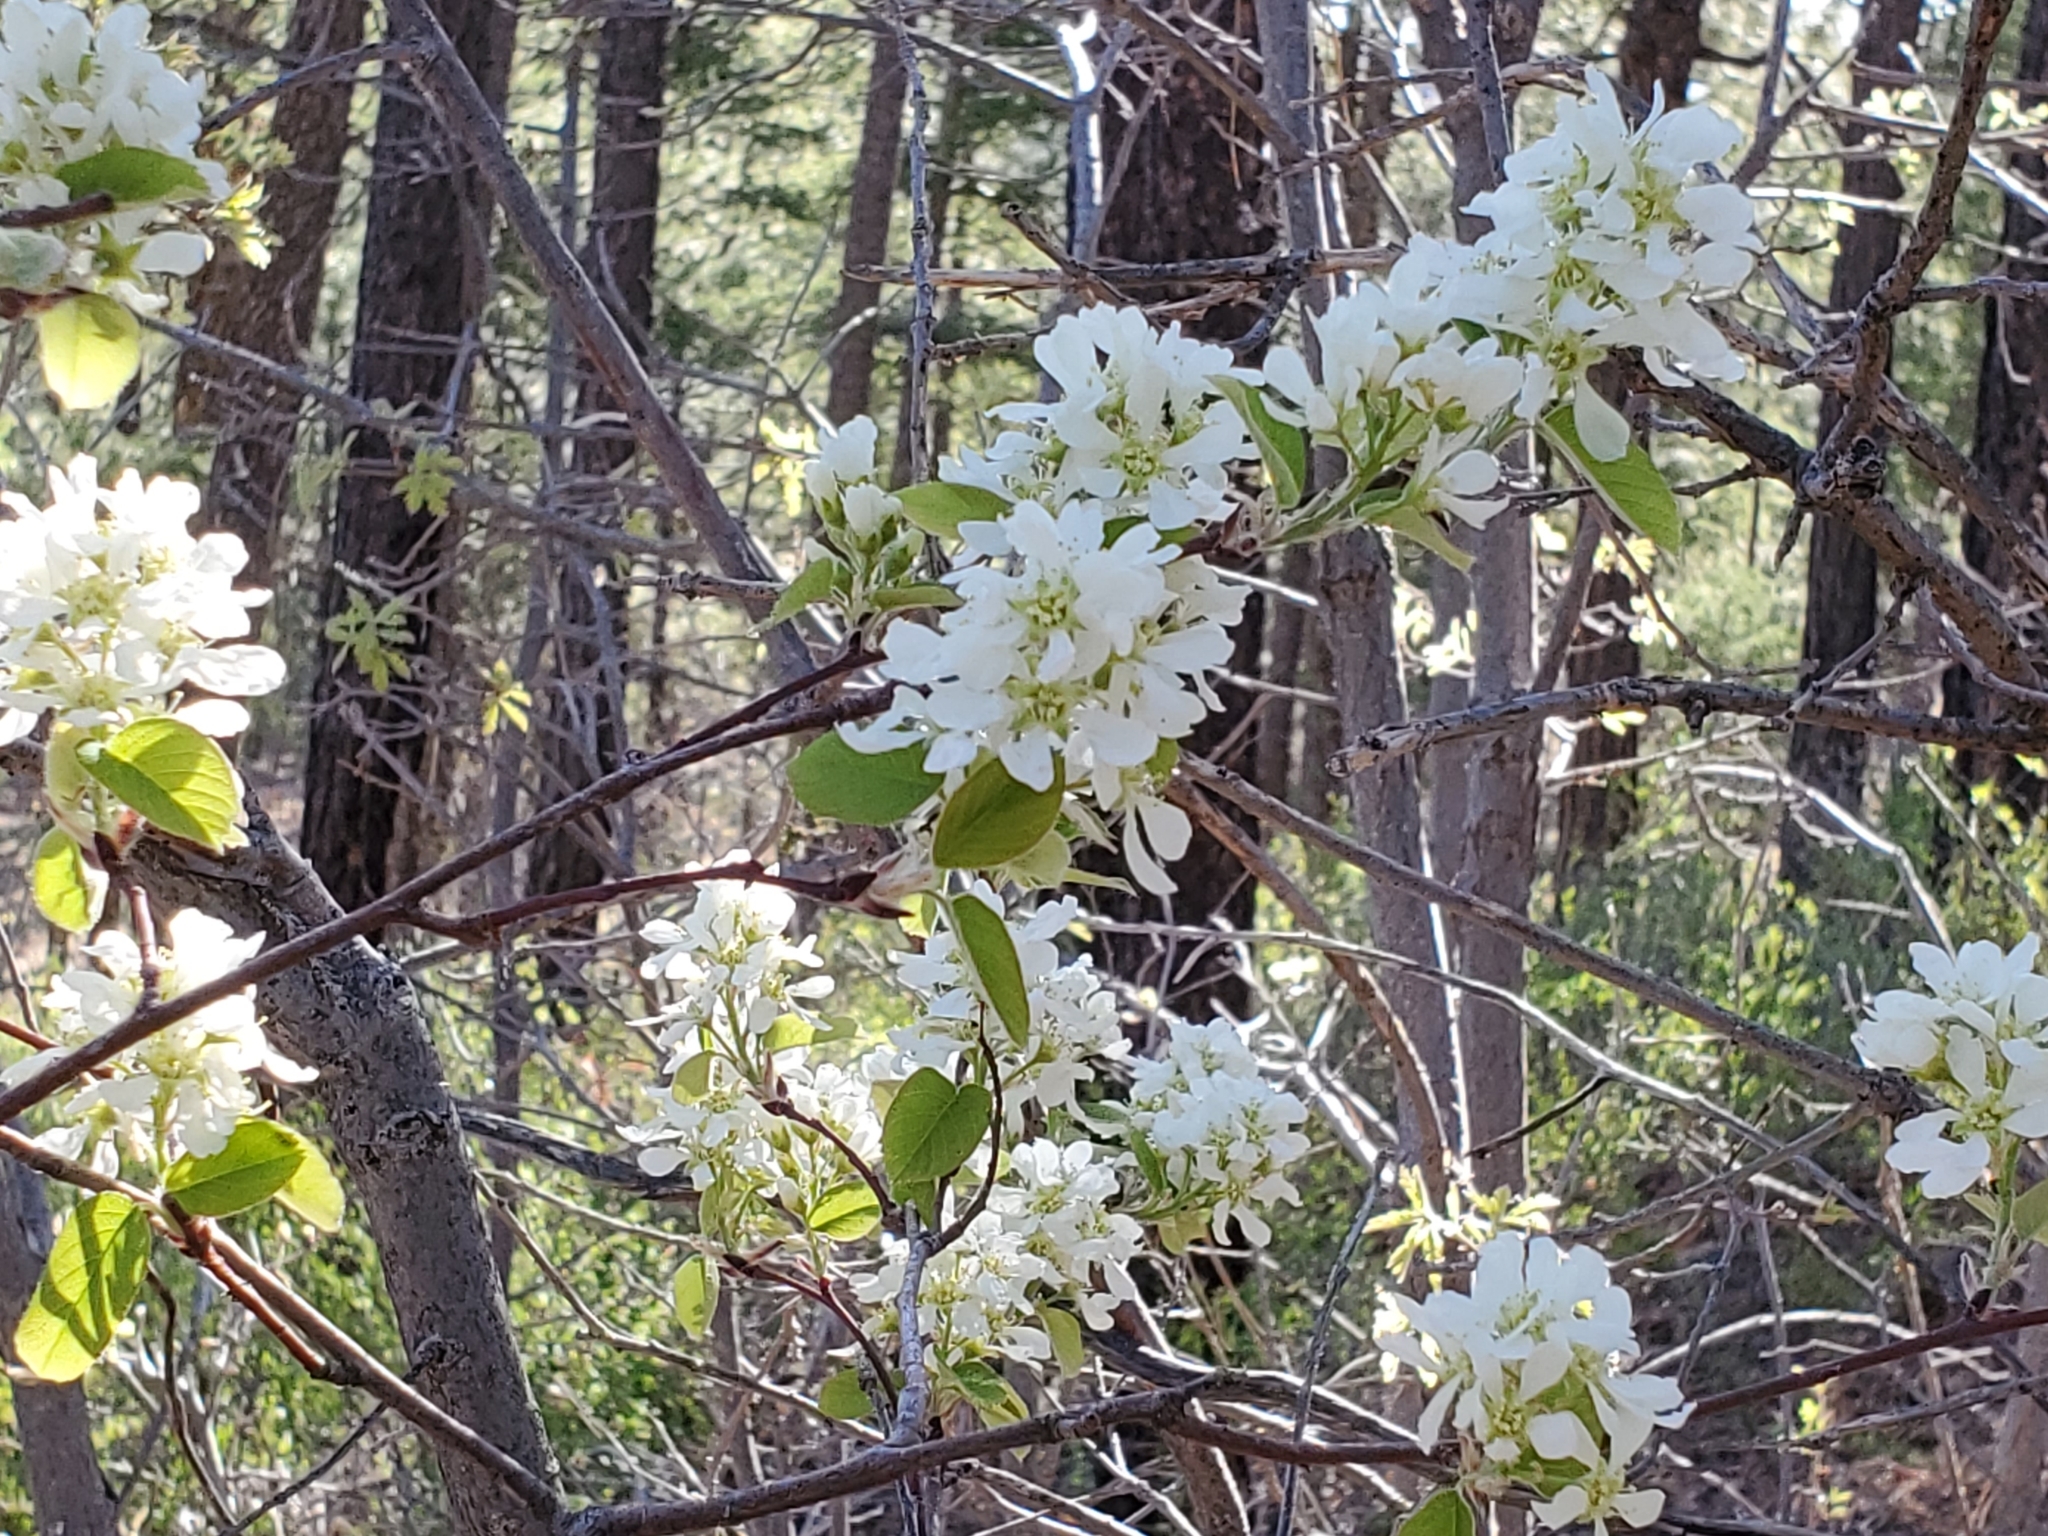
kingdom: Plantae
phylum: Tracheophyta
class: Magnoliopsida
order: Rosales
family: Rosaceae
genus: Amelanchier
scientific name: Amelanchier utahensis
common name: Utah serviceberry
